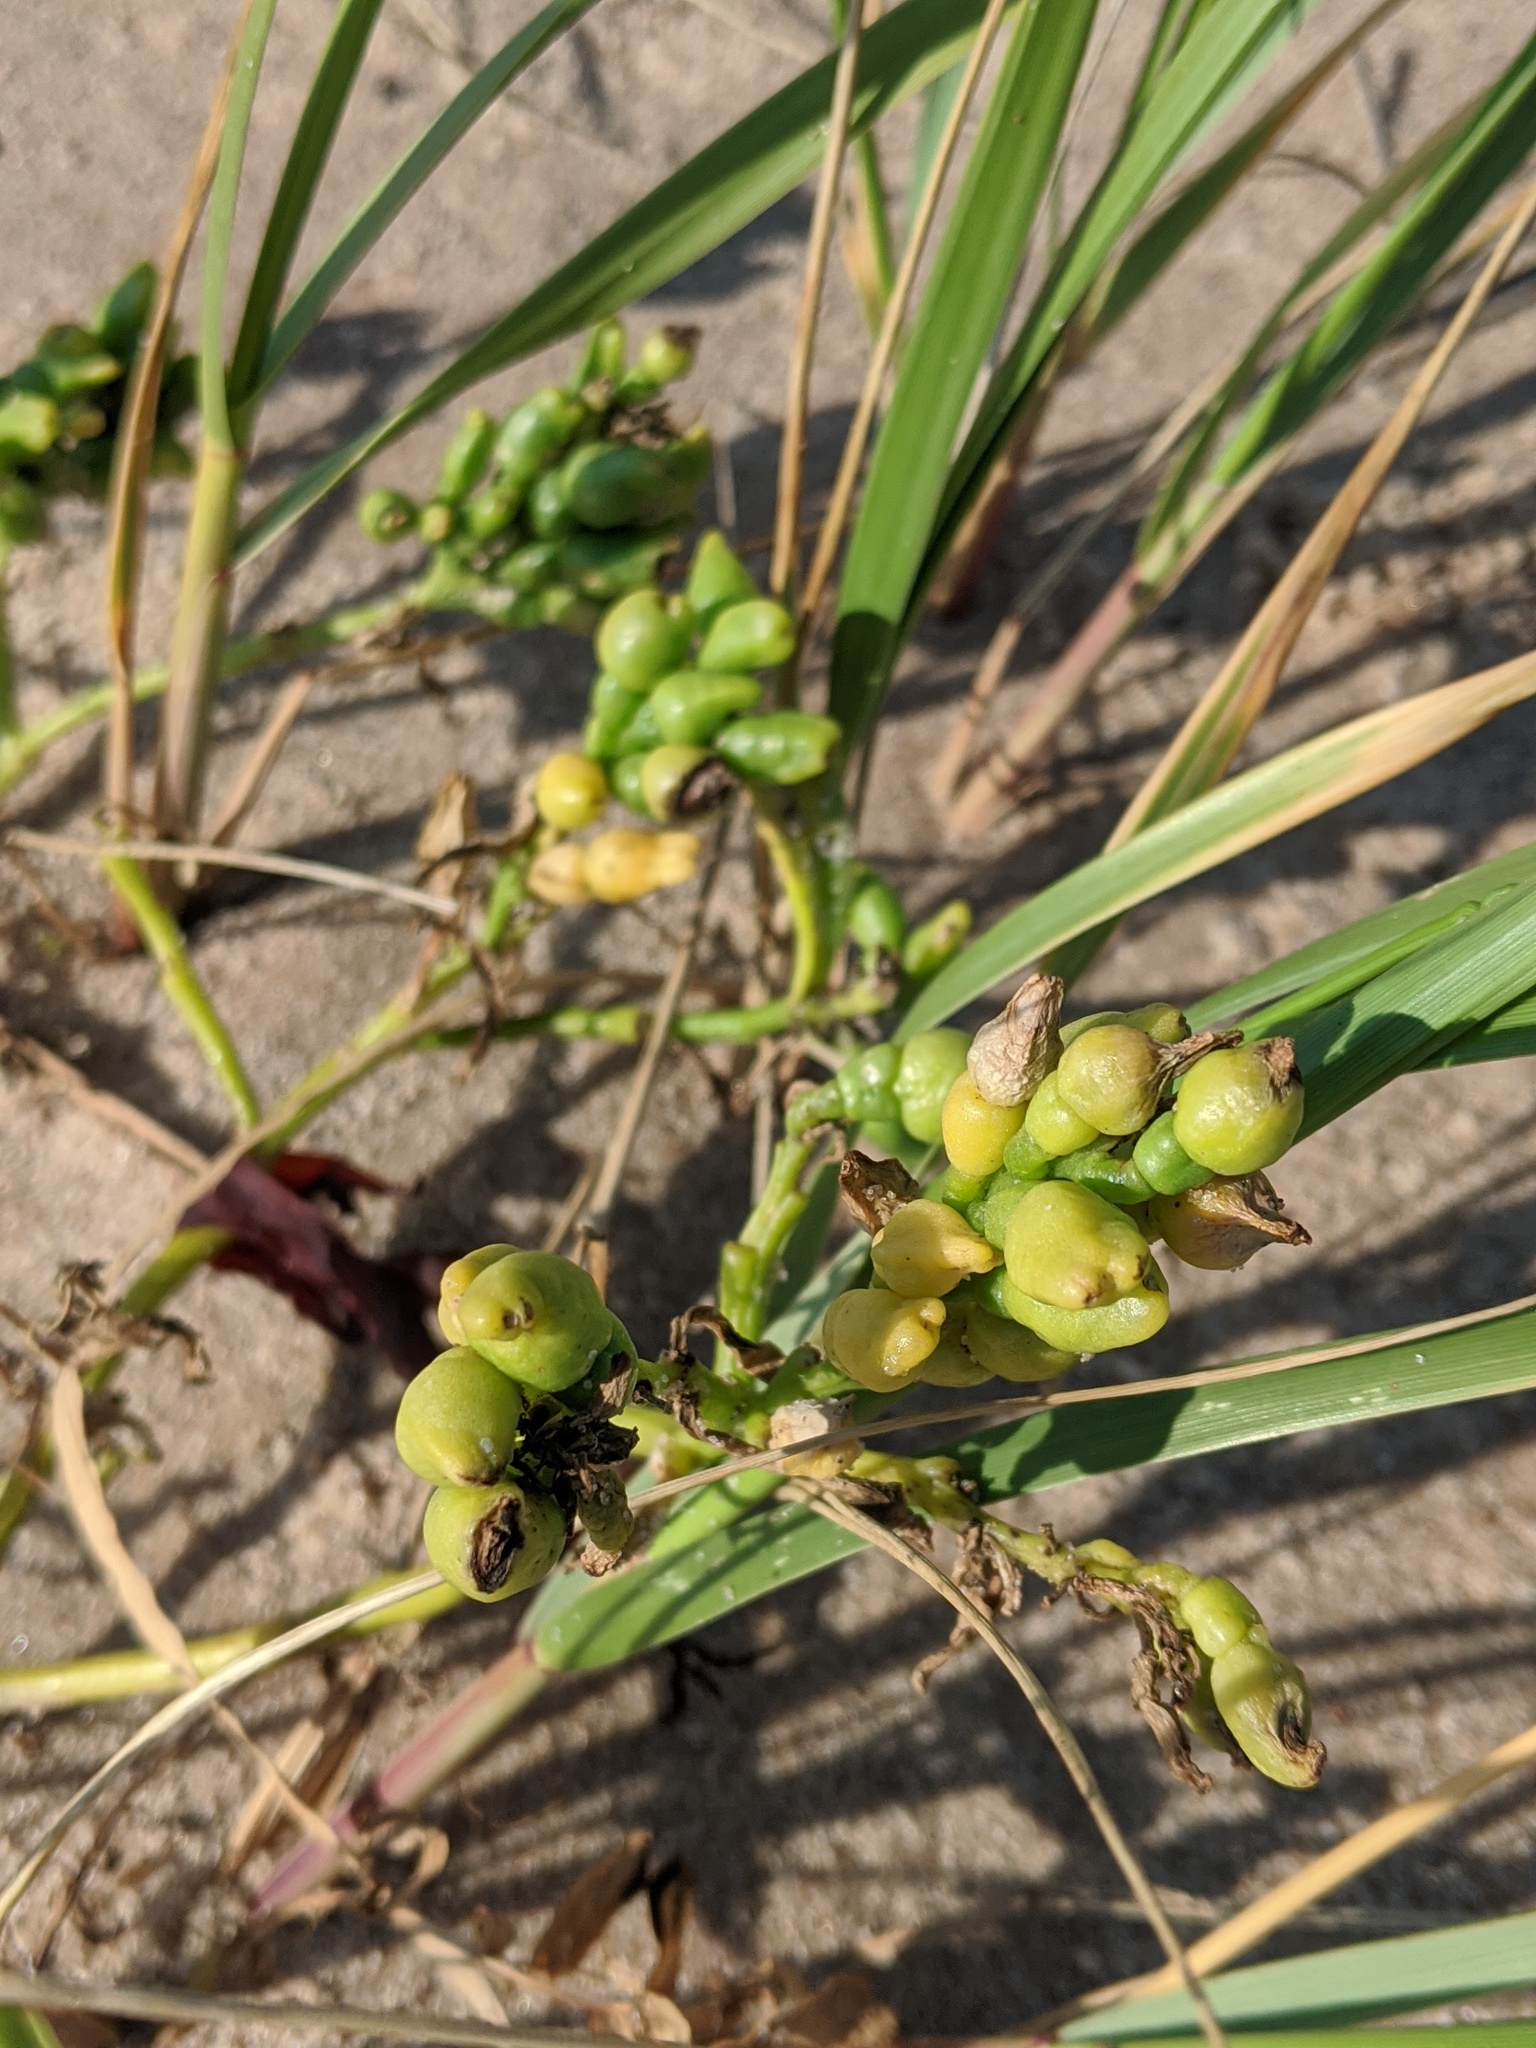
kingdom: Plantae
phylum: Tracheophyta
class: Magnoliopsida
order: Brassicales
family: Brassicaceae
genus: Cakile
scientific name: Cakile edentula
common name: American sea rocket
